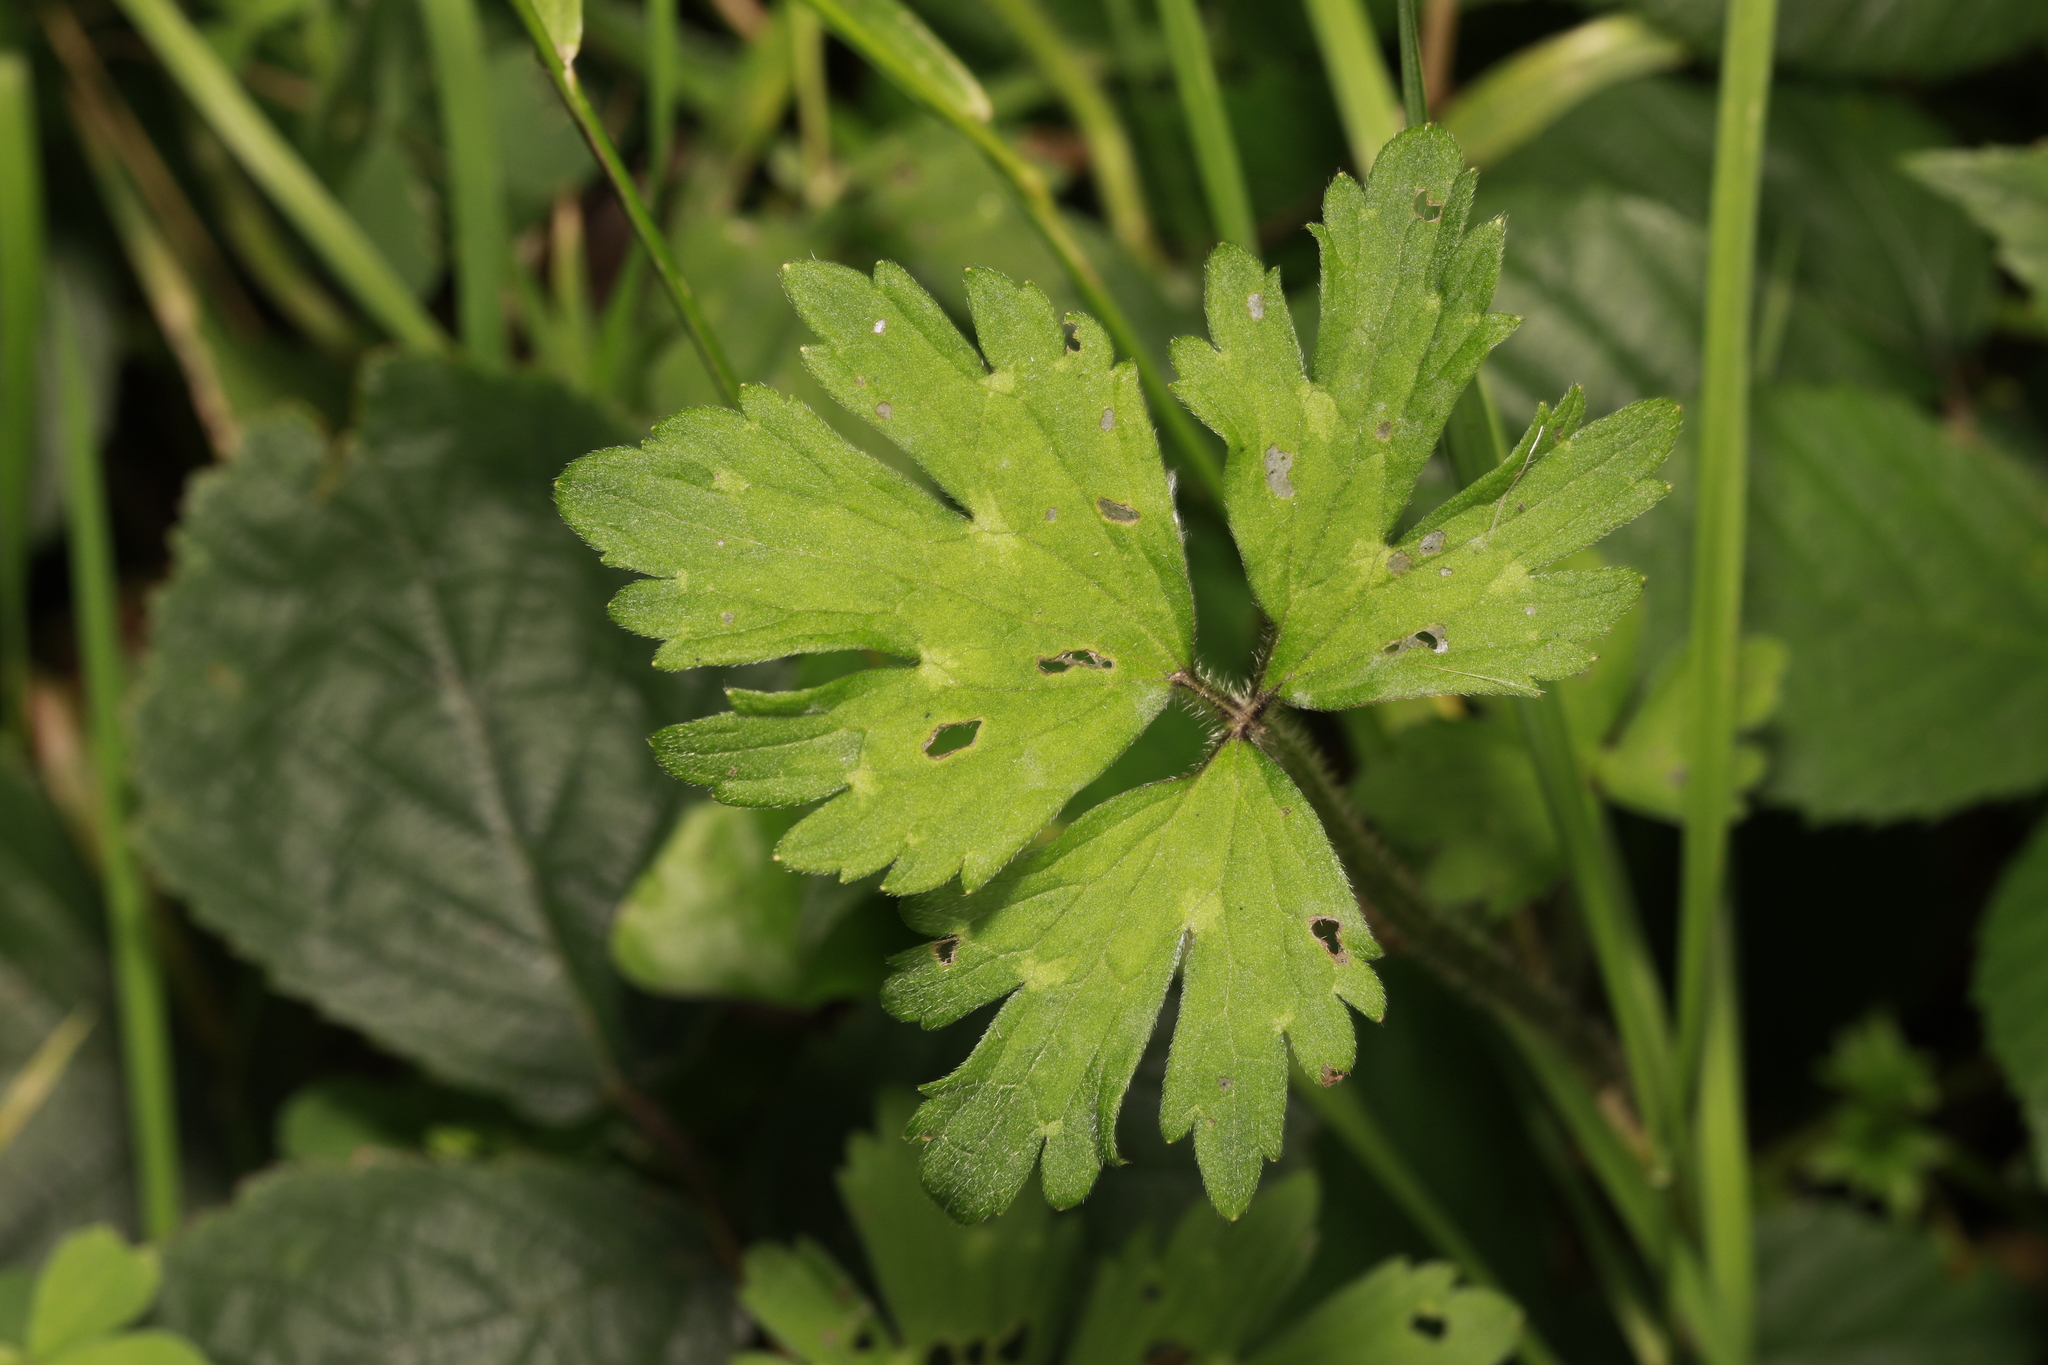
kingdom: Plantae
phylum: Tracheophyta
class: Magnoliopsida
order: Ranunculales
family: Ranunculaceae
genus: Ranunculus
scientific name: Ranunculus repens
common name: Creeping buttercup
